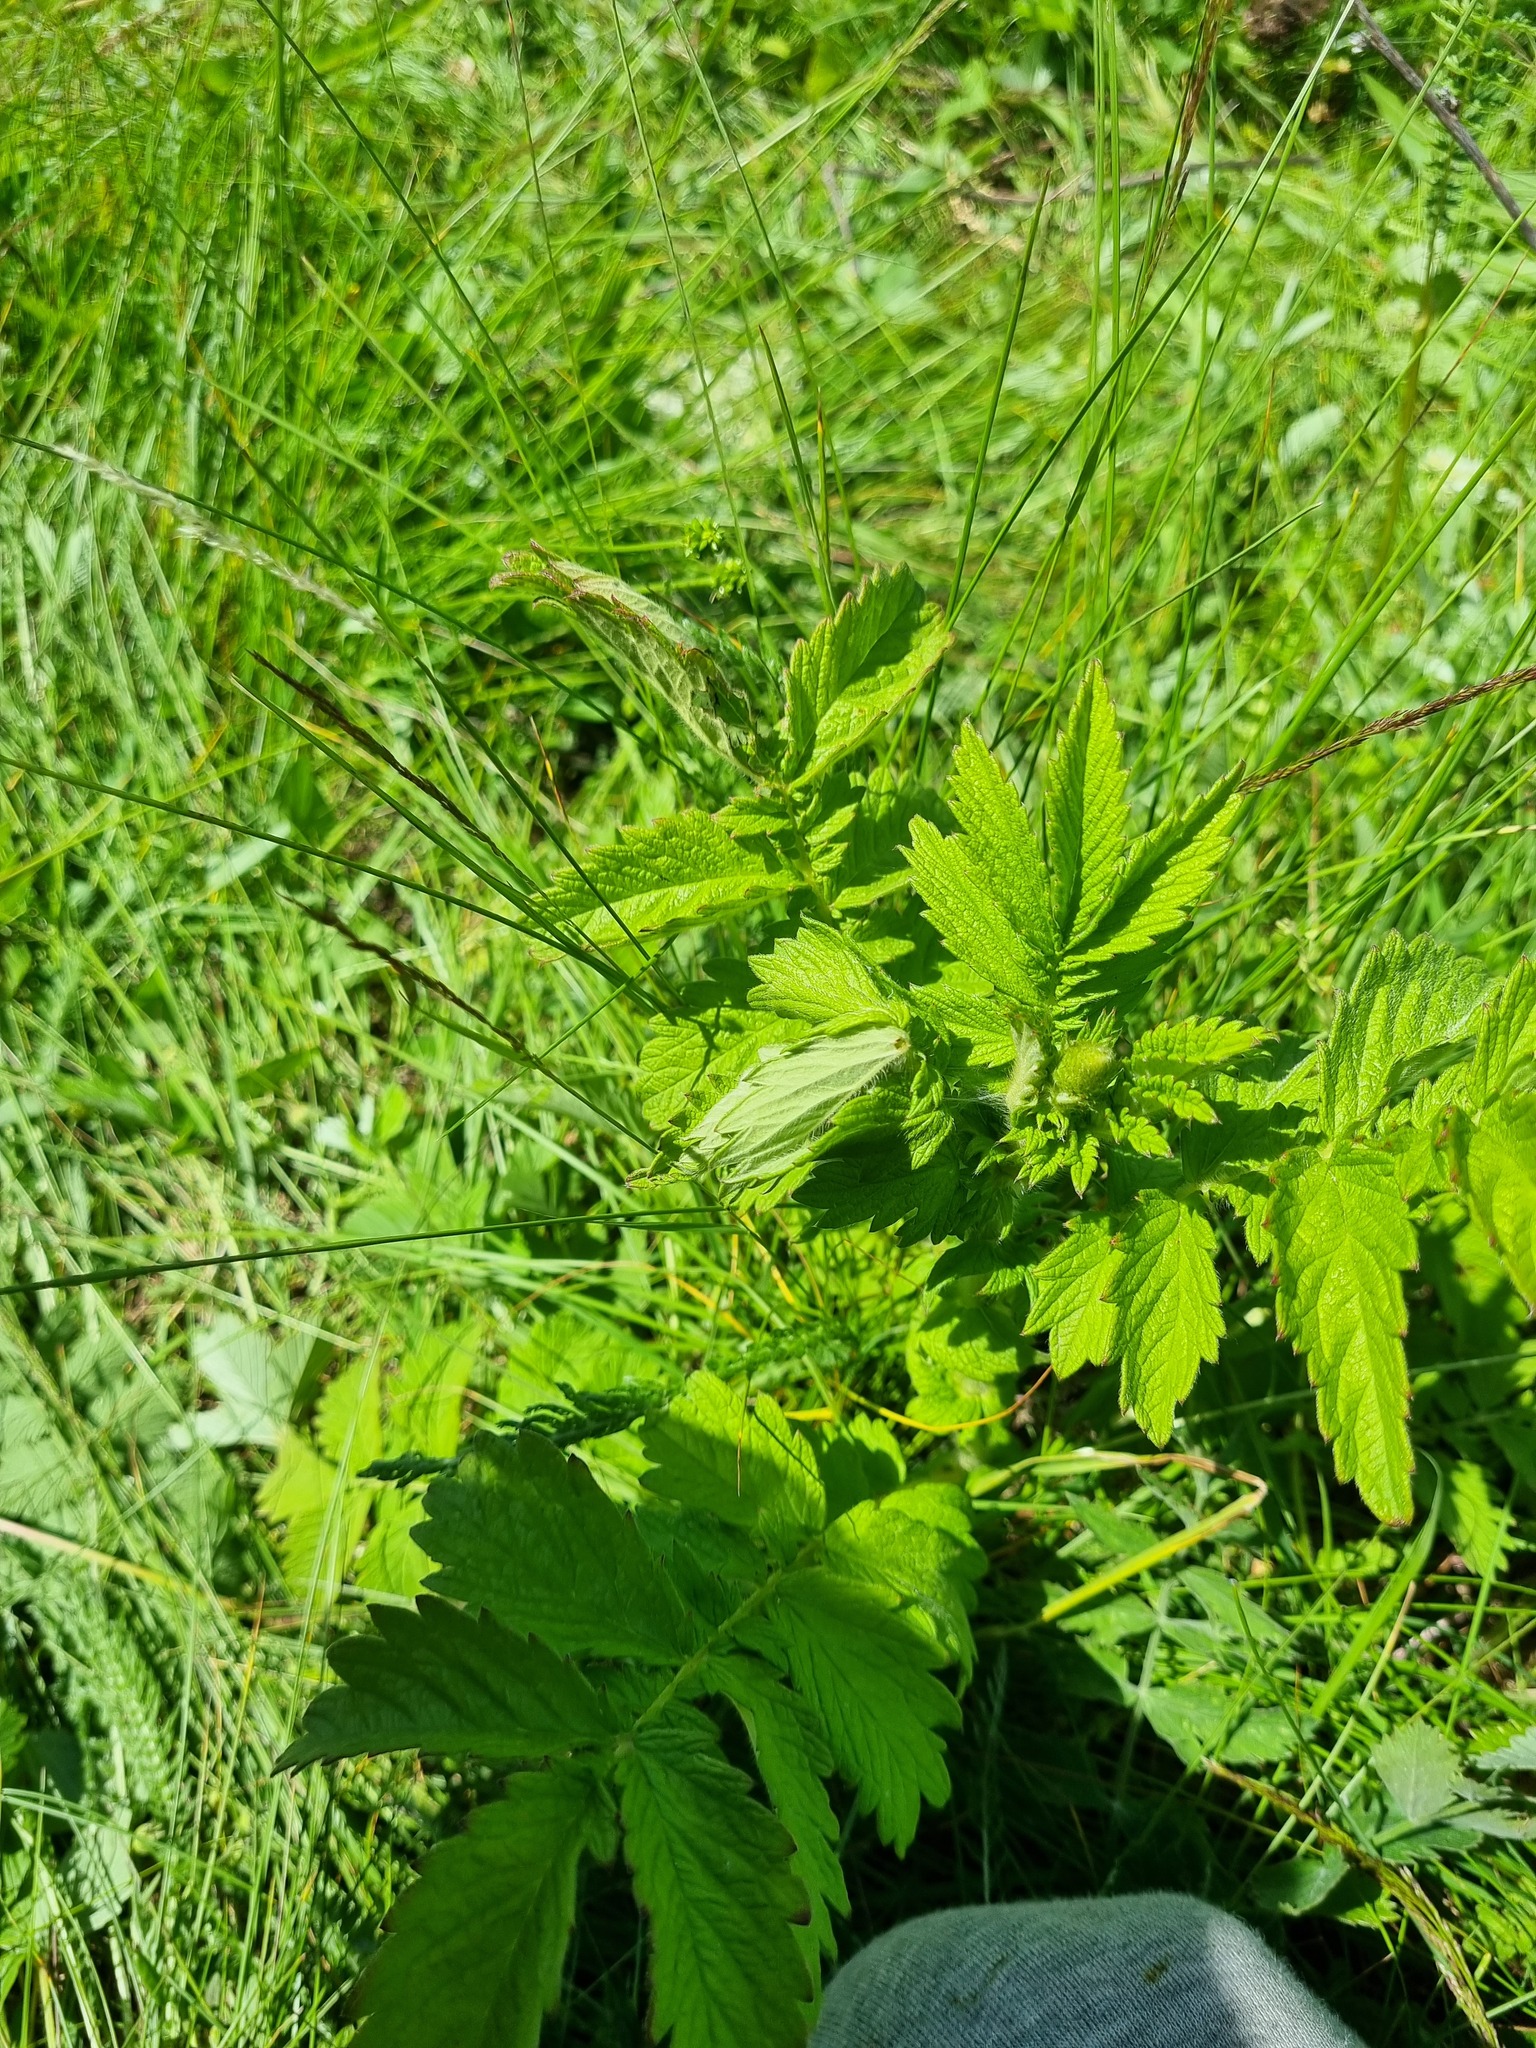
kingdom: Plantae
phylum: Tracheophyta
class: Magnoliopsida
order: Rosales
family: Rosaceae
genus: Agrimonia
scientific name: Agrimonia eupatoria
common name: Agrimony
